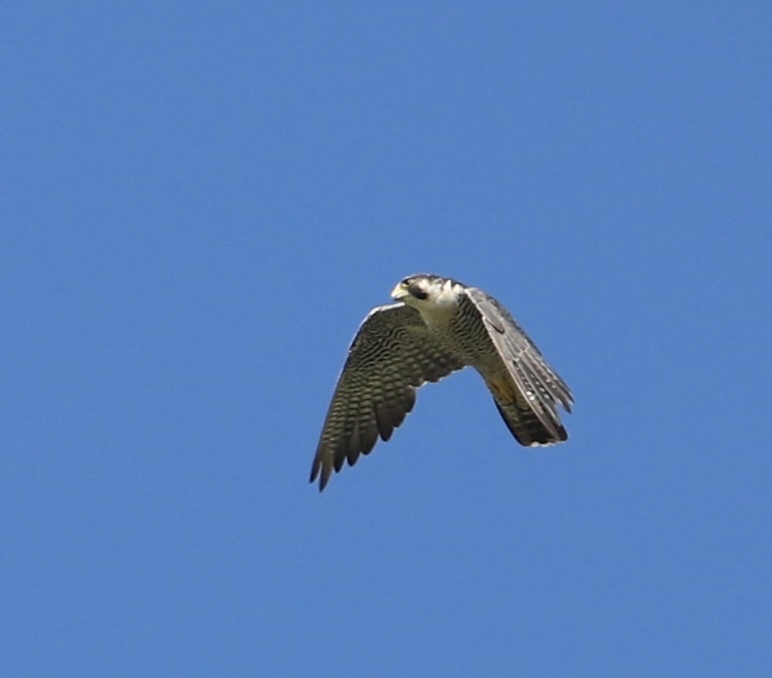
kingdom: Animalia
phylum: Chordata
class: Aves
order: Falconiformes
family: Falconidae
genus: Falco
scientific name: Falco peregrinus
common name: Peregrine falcon
